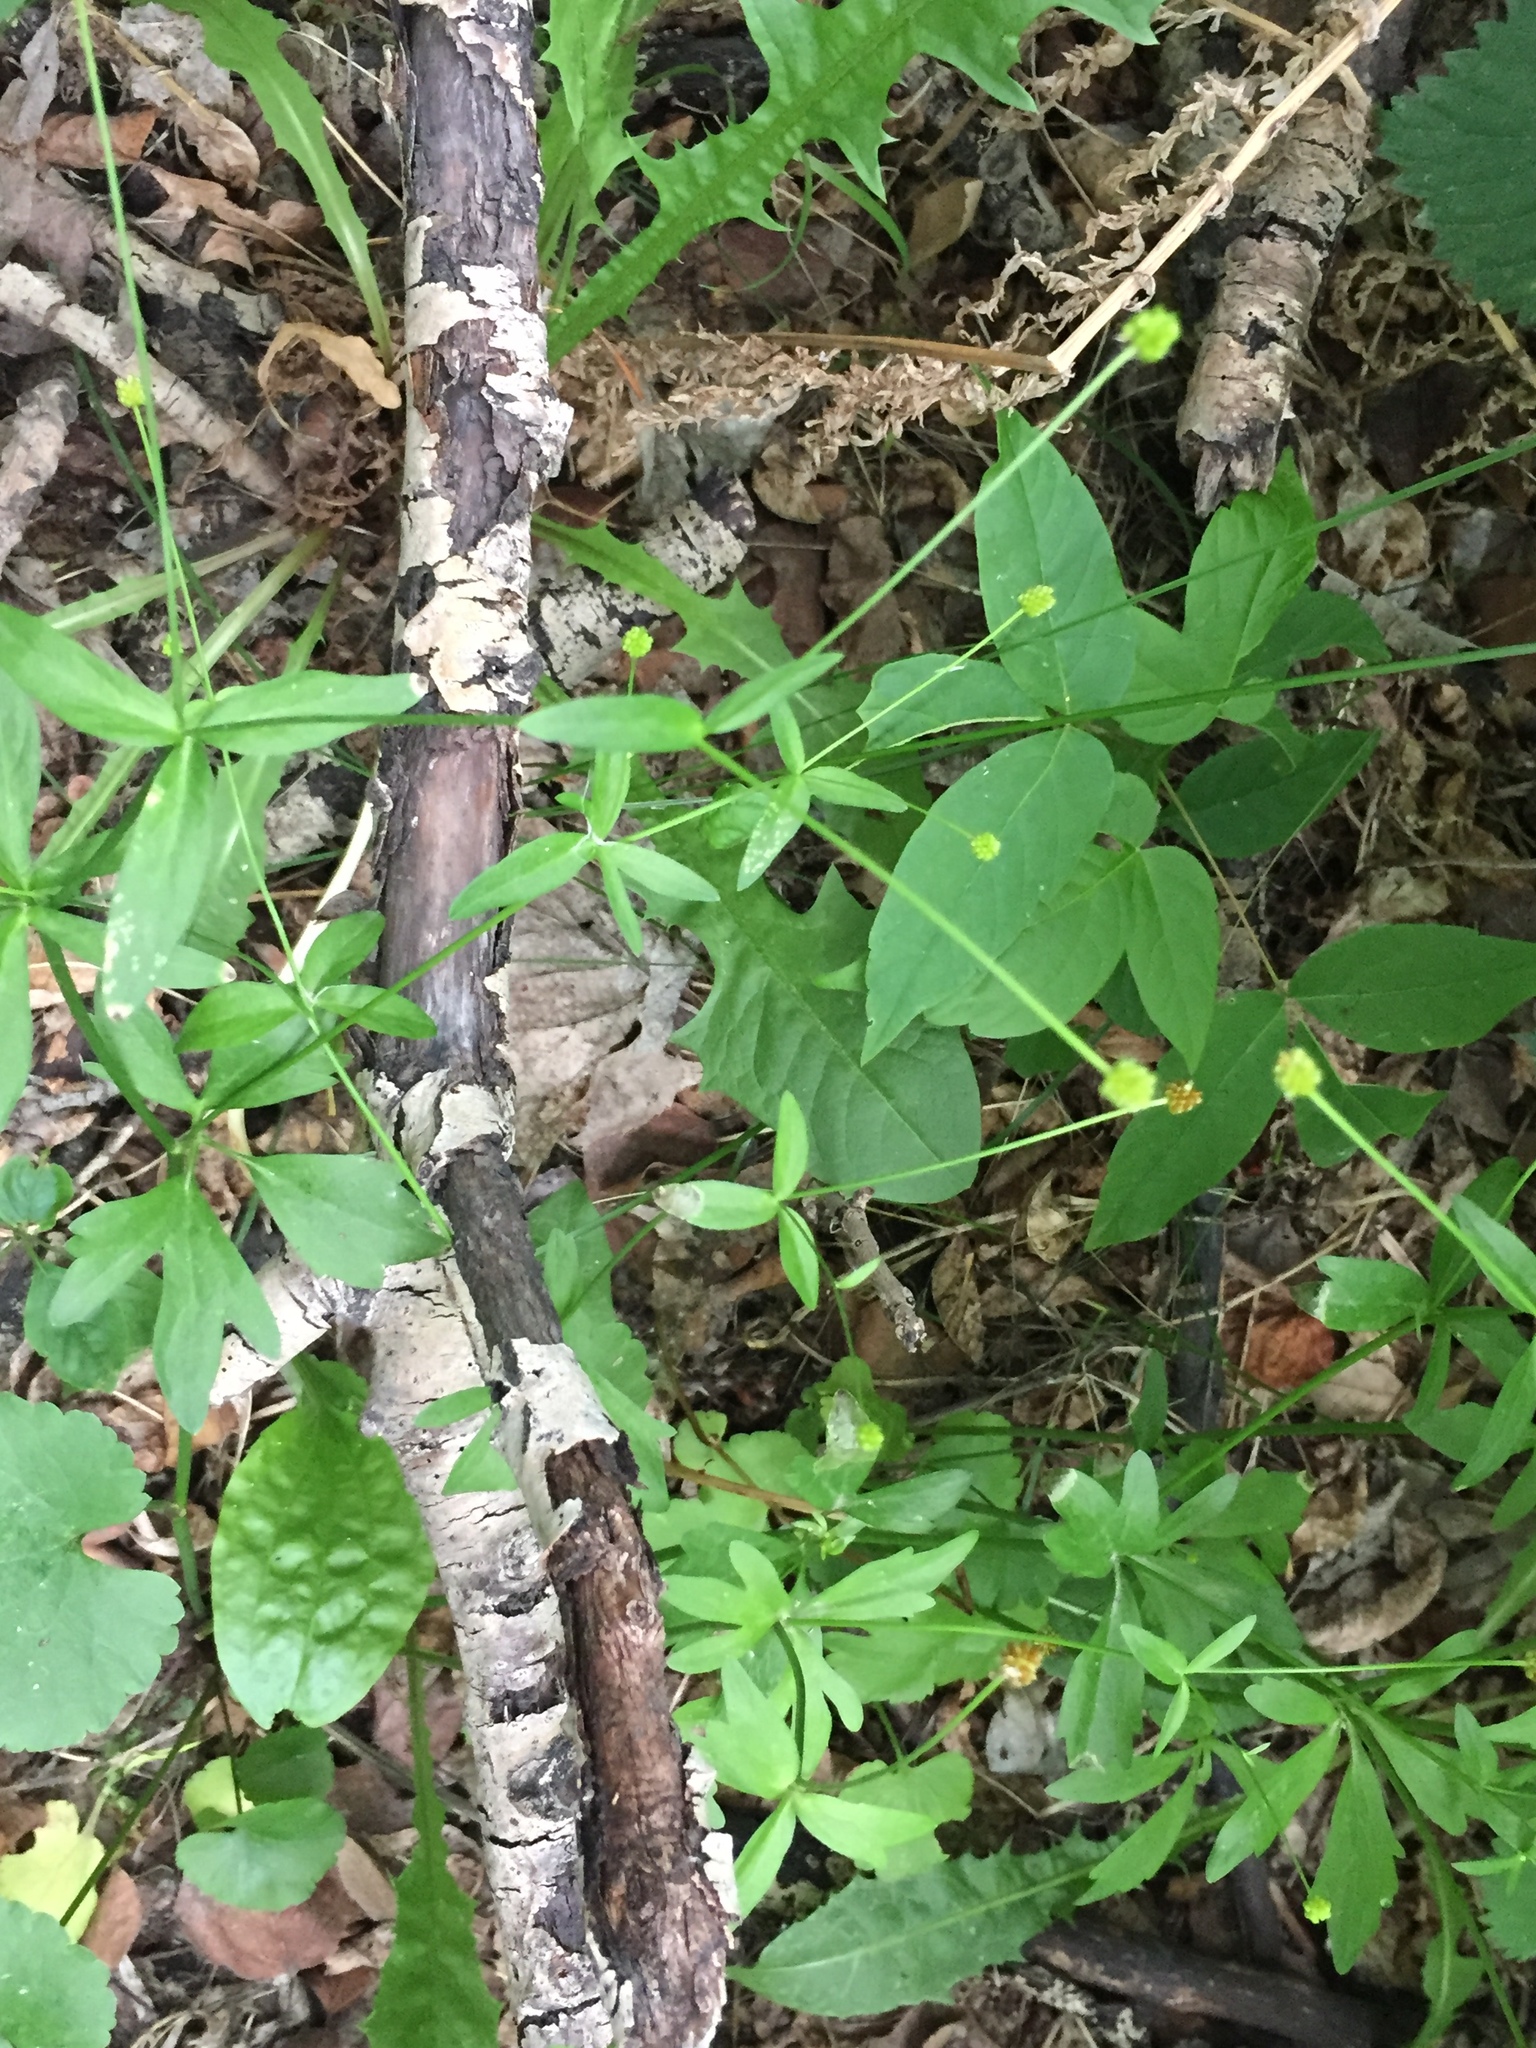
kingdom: Plantae
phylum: Tracheophyta
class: Magnoliopsida
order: Ranunculales
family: Ranunculaceae
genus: Ranunculus
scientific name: Ranunculus abortivus
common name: Early wood buttercup
